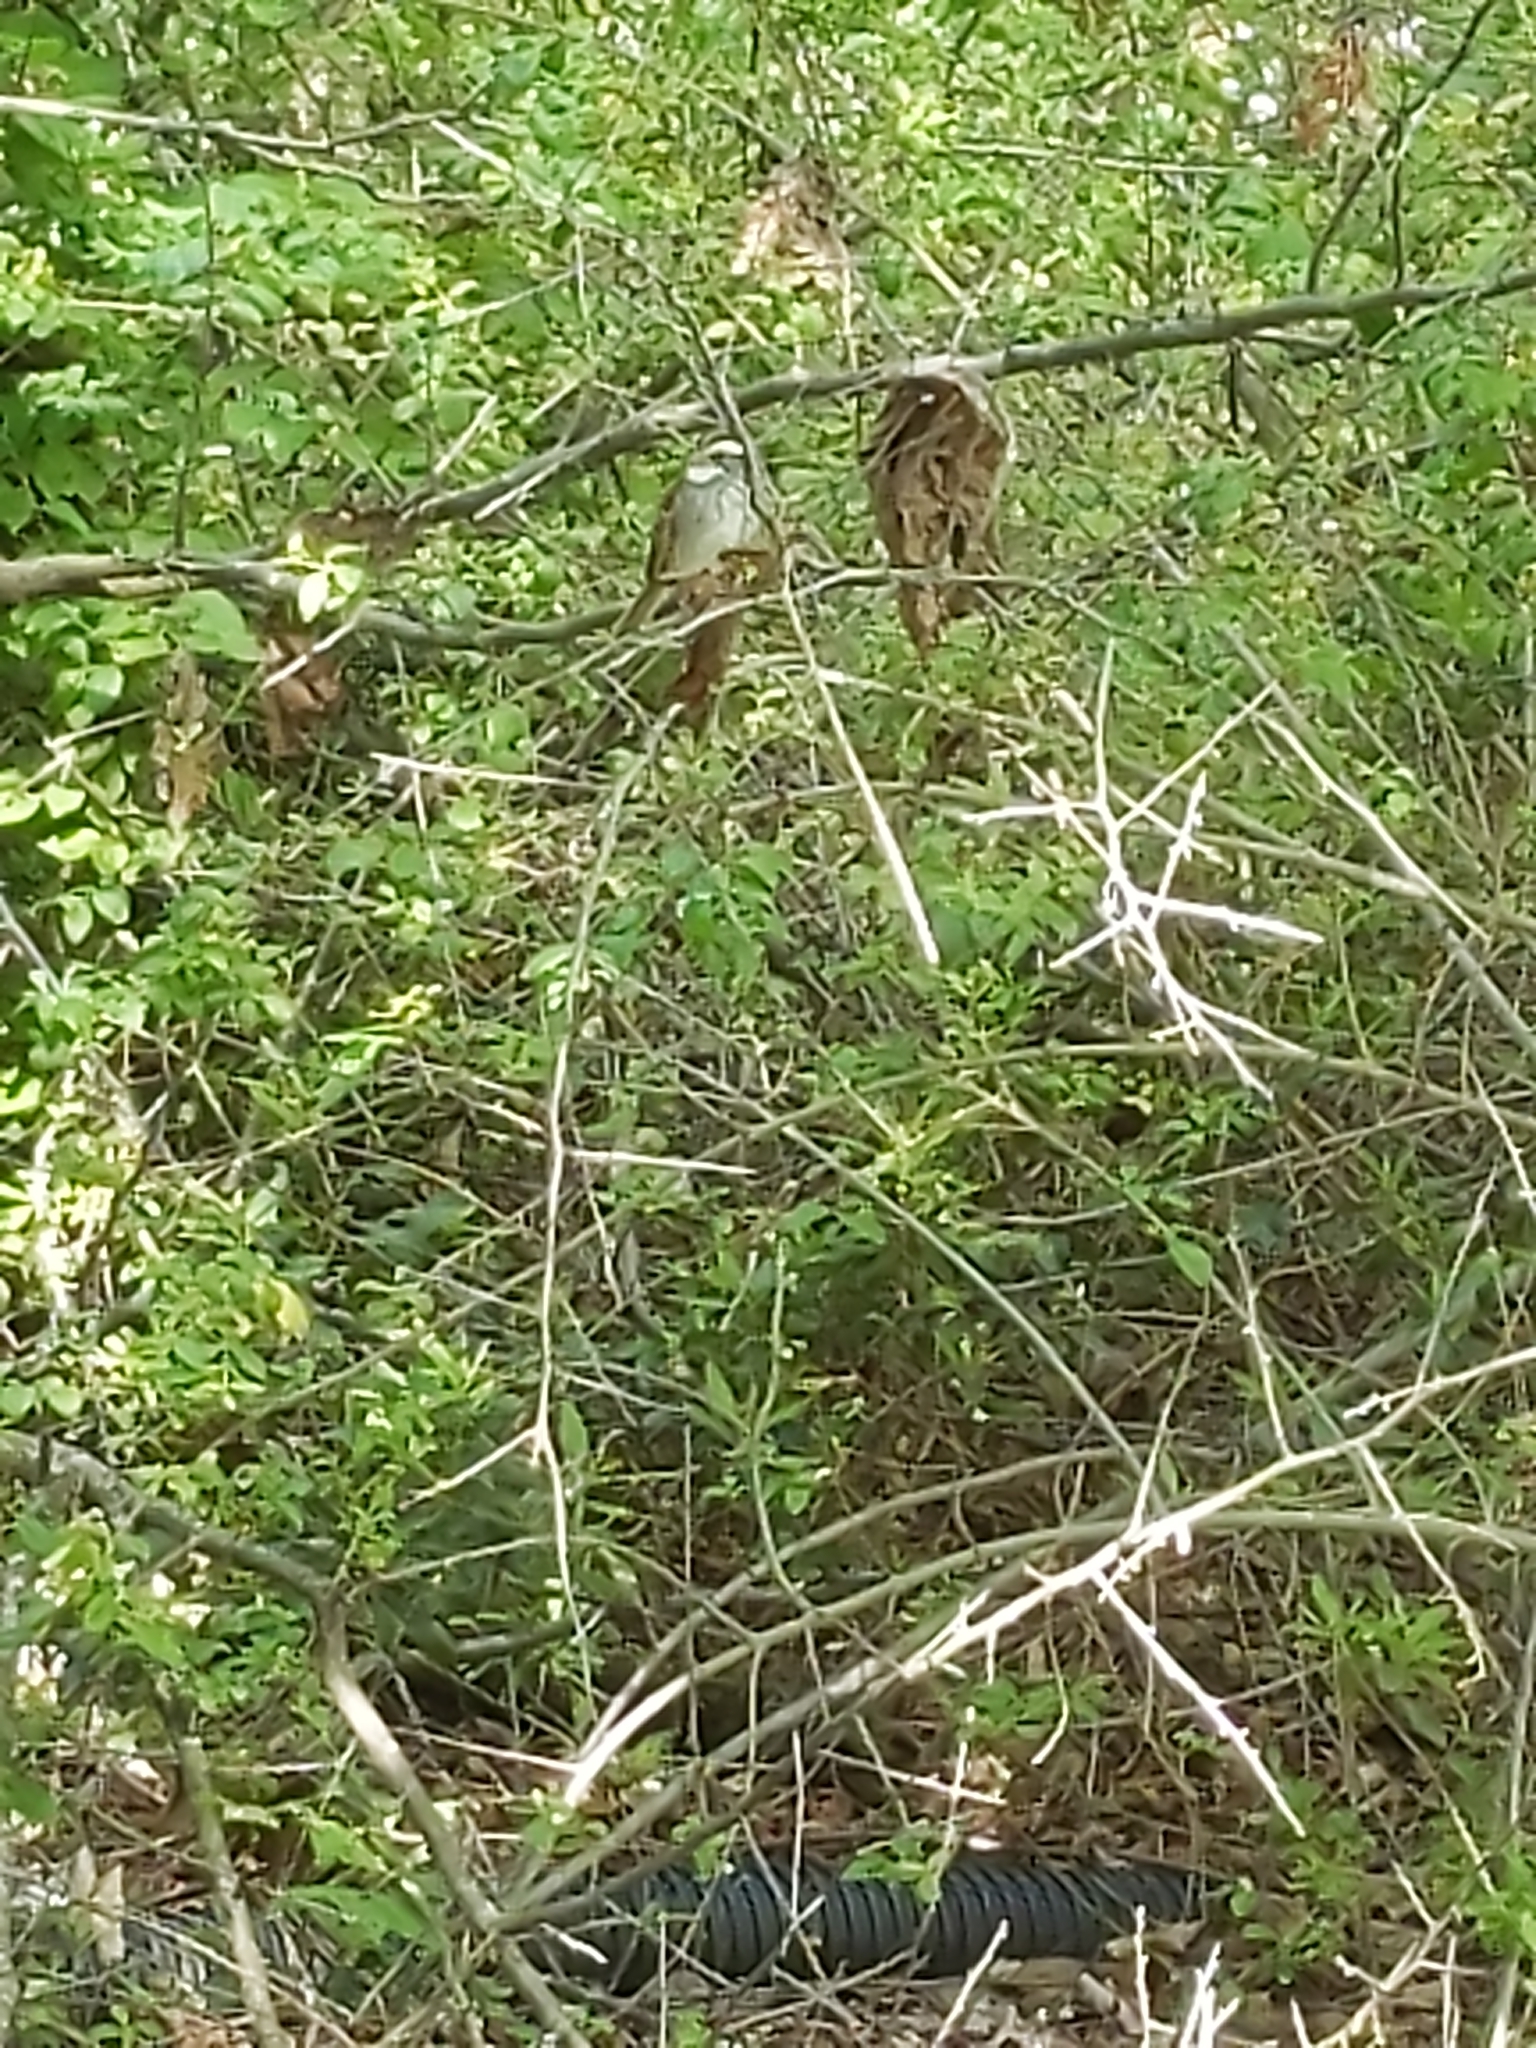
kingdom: Animalia
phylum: Chordata
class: Aves
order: Passeriformes
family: Passerellidae
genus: Zonotrichia
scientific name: Zonotrichia albicollis
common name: White-throated sparrow
